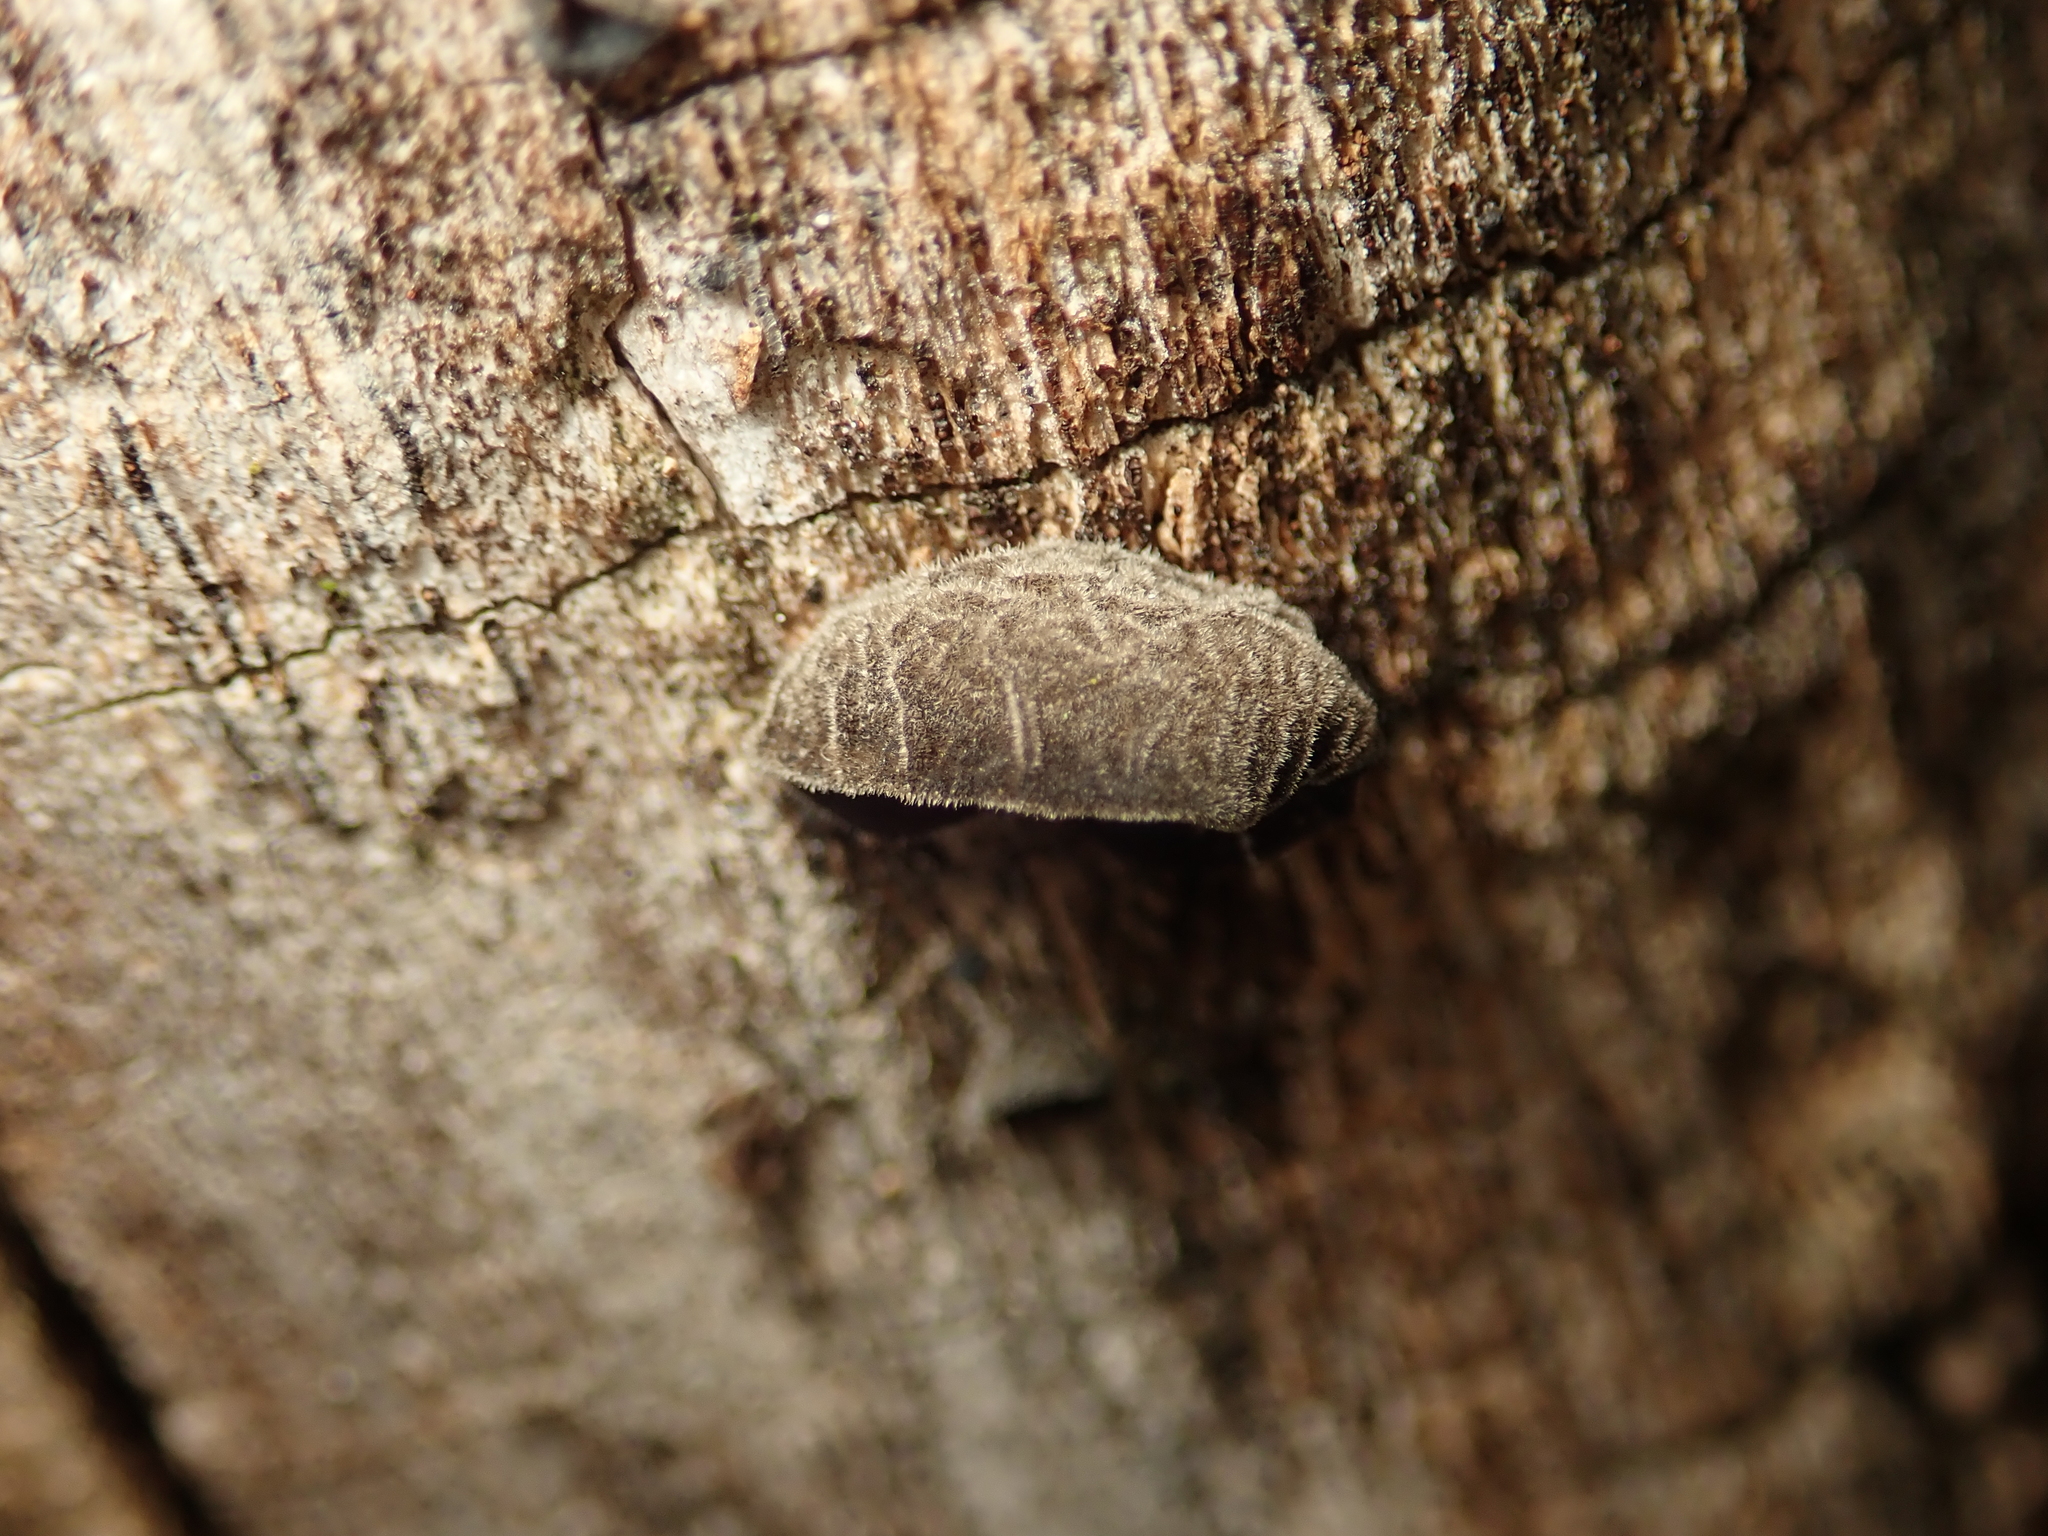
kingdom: Fungi
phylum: Basidiomycota
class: Agaricomycetes
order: Auriculariales
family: Auriculariaceae
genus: Auricularia
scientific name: Auricularia auricula-judae
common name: Jelly ear
